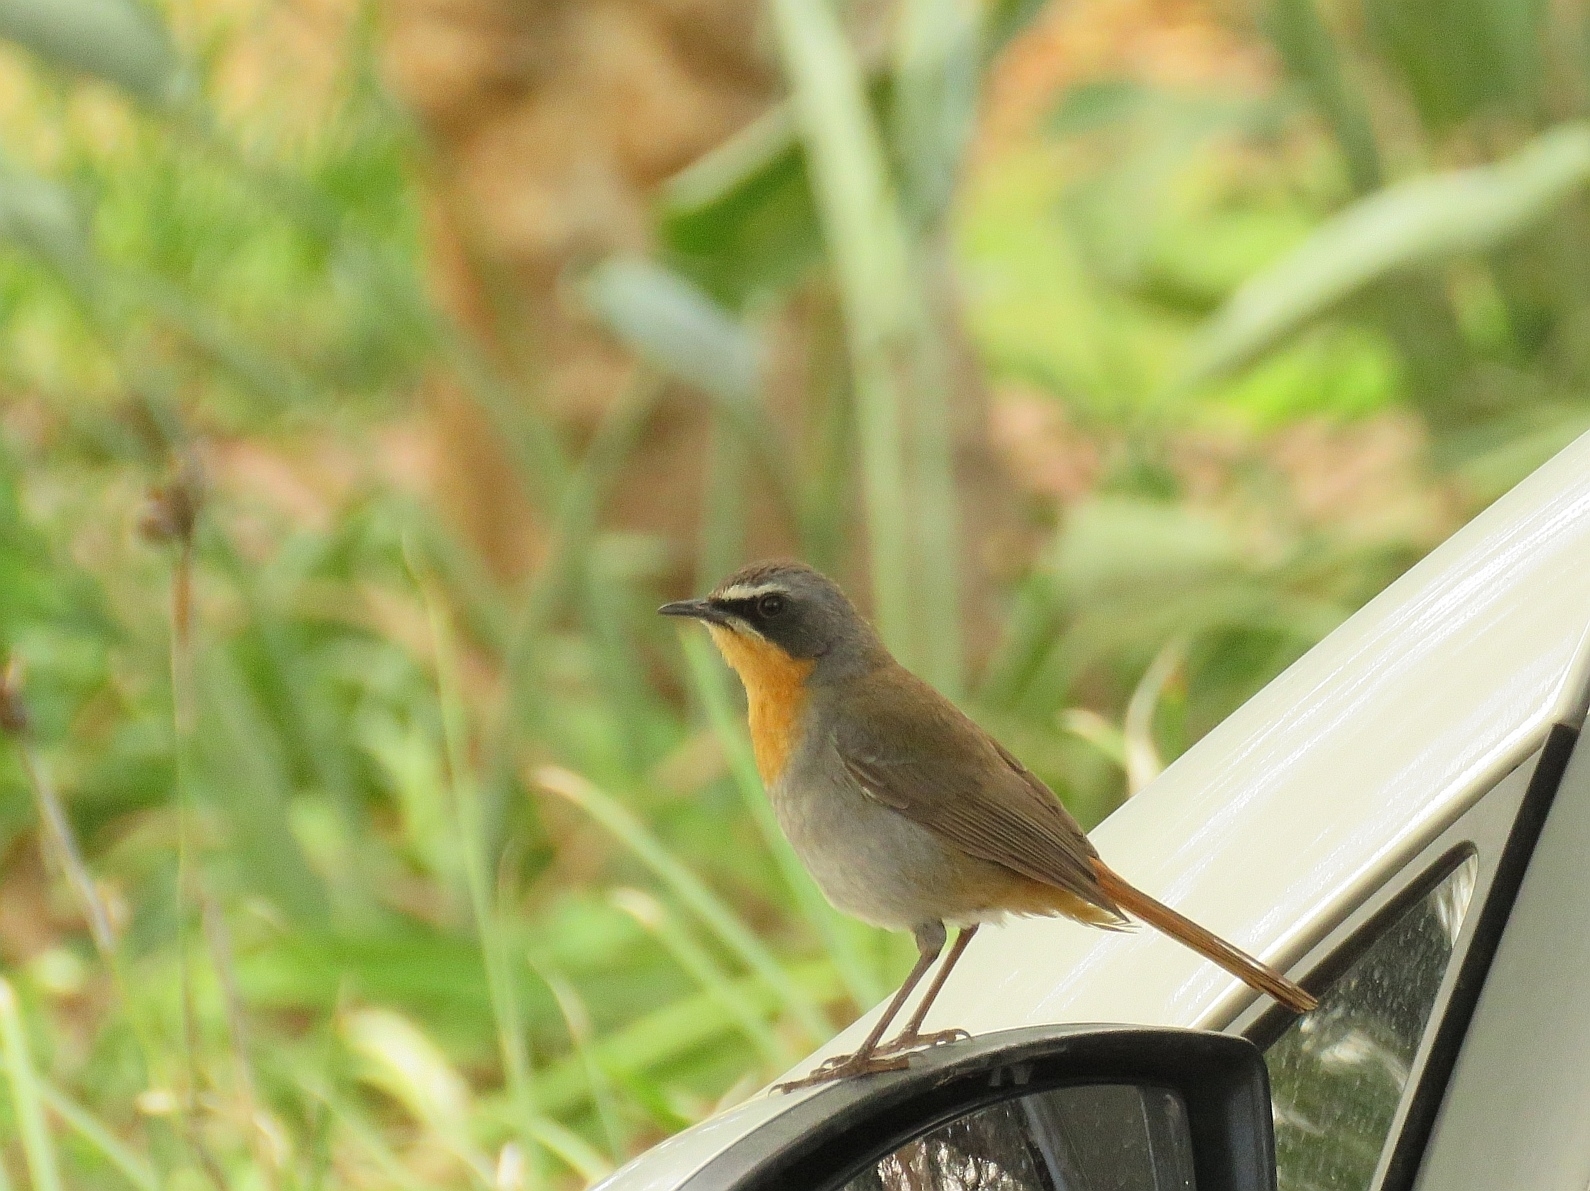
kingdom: Animalia
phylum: Chordata
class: Aves
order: Passeriformes
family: Muscicapidae
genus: Cossypha
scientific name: Cossypha caffra
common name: Cape robin-chat
